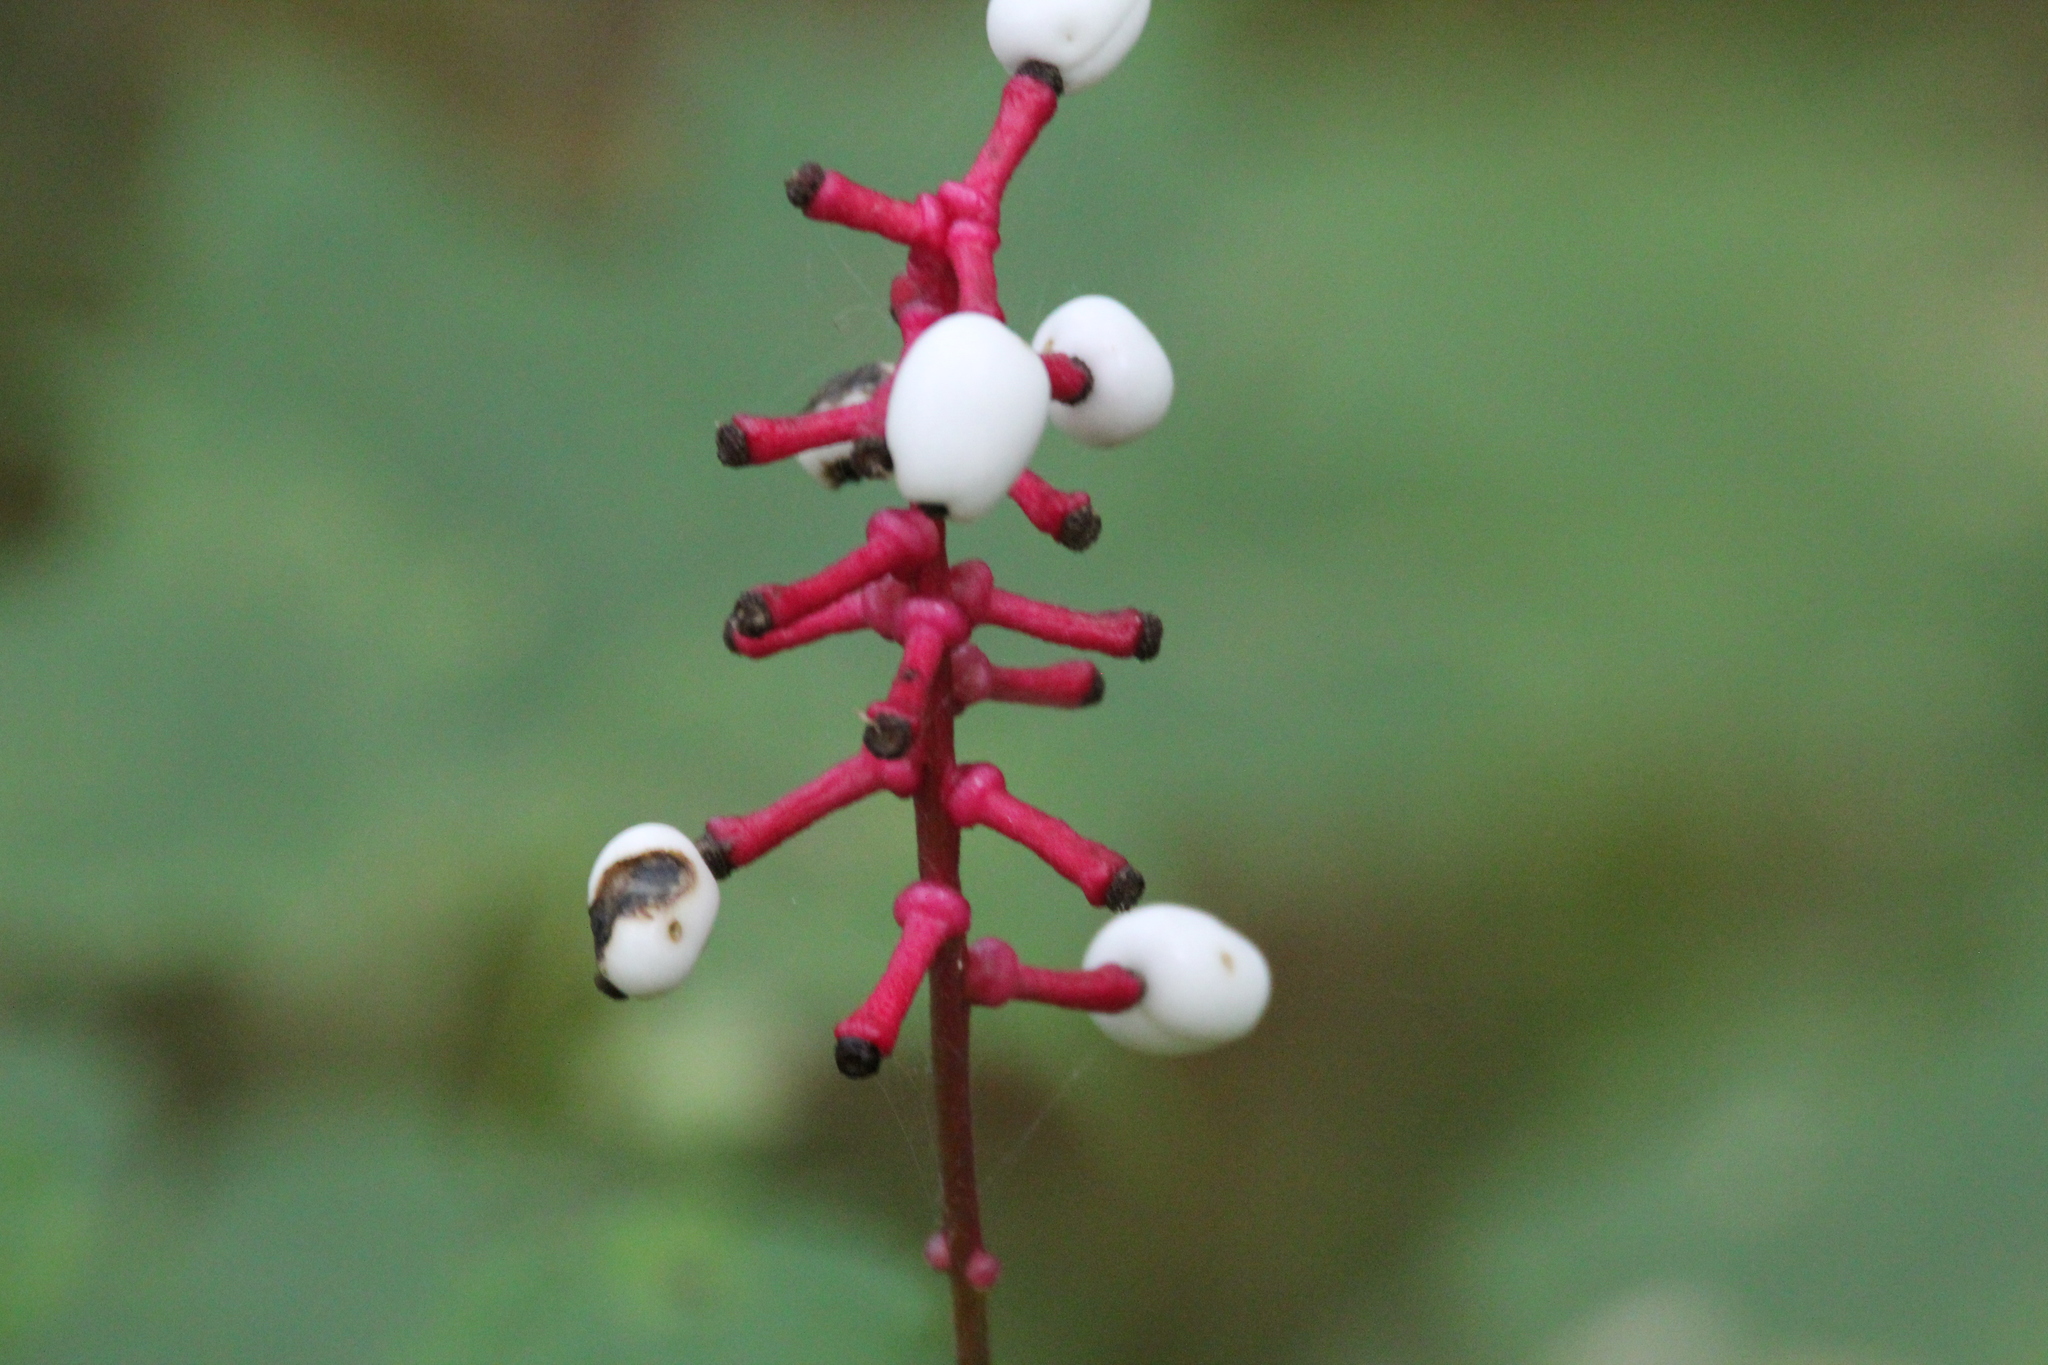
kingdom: Plantae
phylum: Tracheophyta
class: Magnoliopsida
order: Ranunculales
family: Ranunculaceae
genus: Actaea
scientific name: Actaea pachypoda
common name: Doll's-eyes
